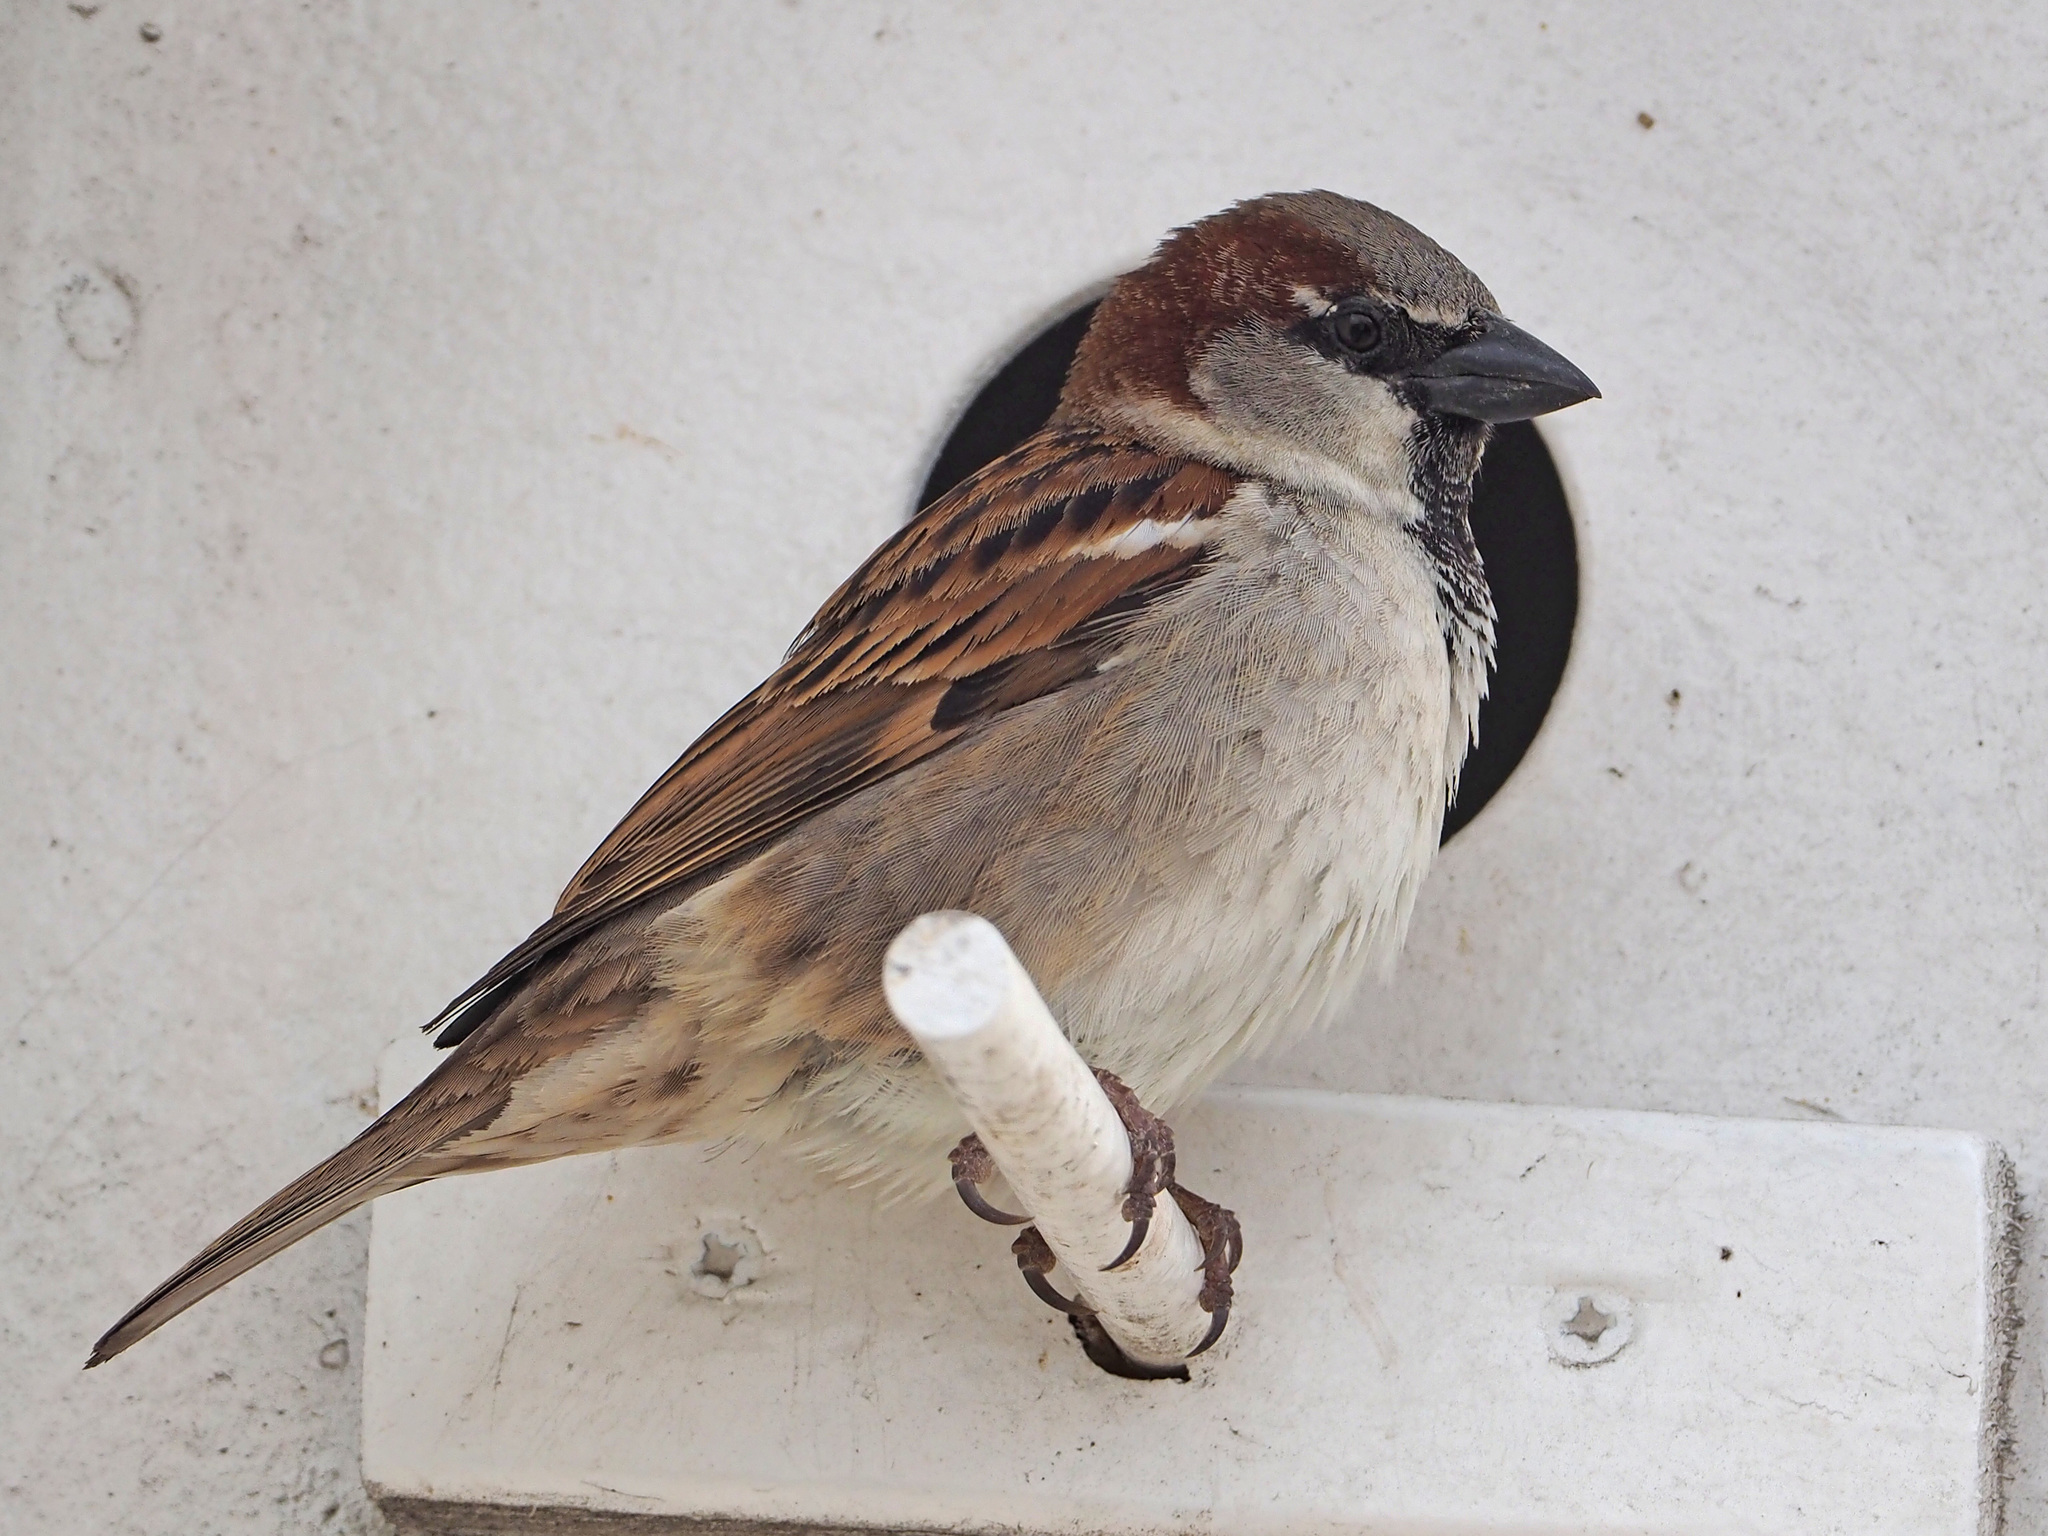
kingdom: Animalia
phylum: Chordata
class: Aves
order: Passeriformes
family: Passeridae
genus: Passer
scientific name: Passer domesticus
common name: House sparrow
